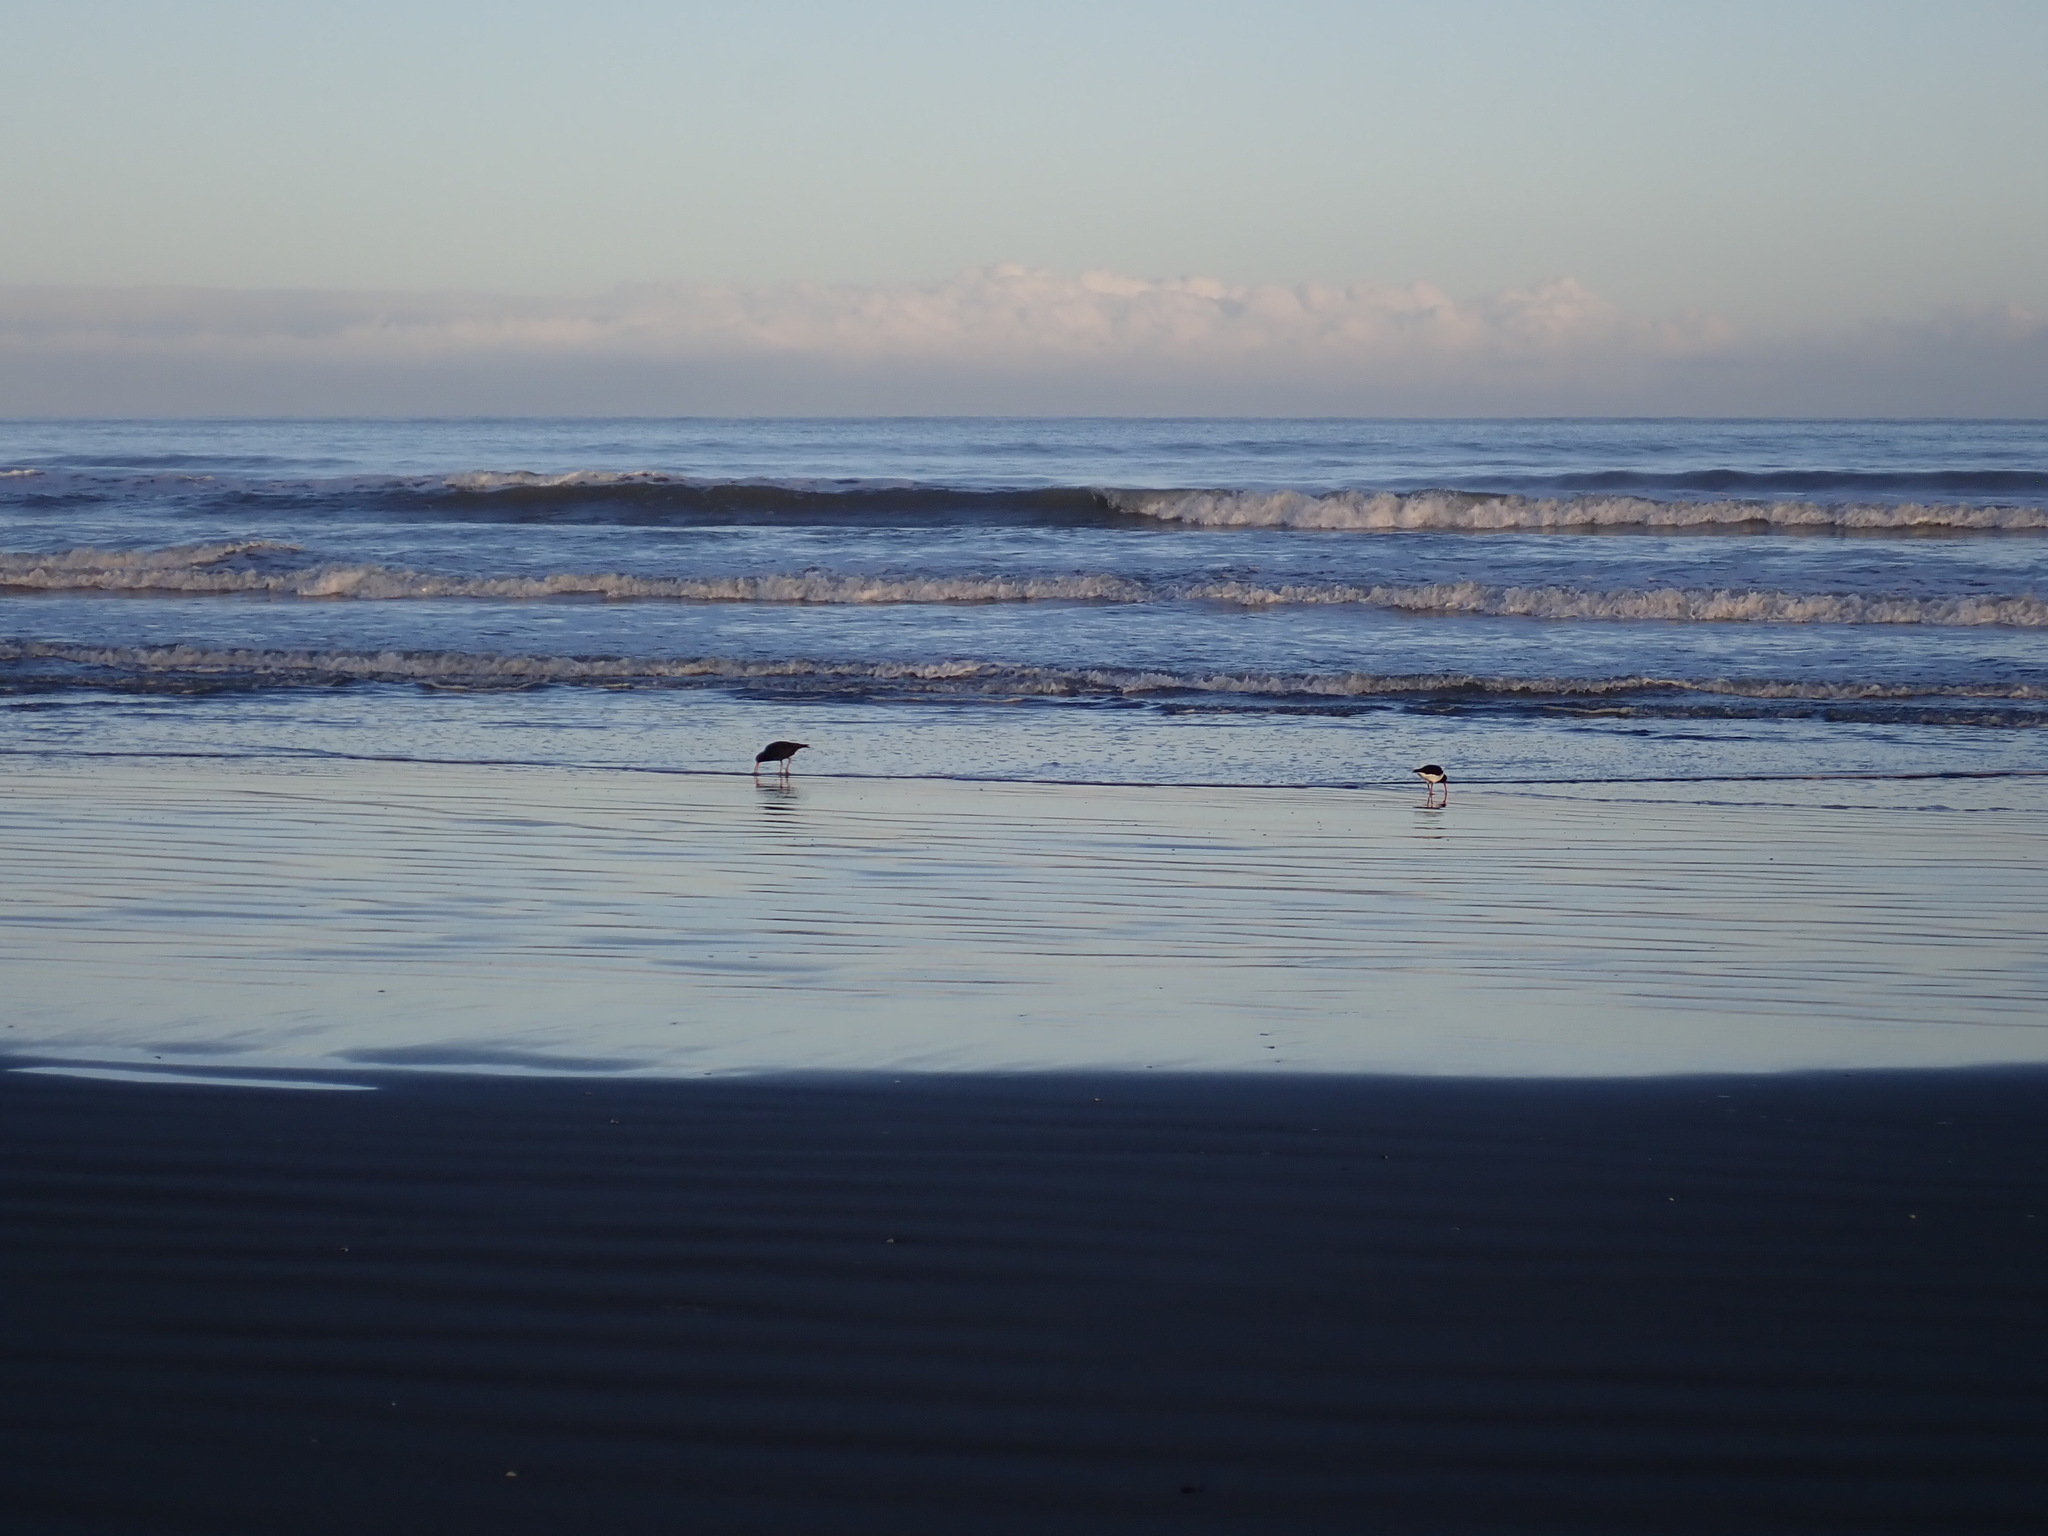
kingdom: Animalia
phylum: Chordata
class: Aves
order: Charadriiformes
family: Haematopodidae
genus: Haematopus
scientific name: Haematopus unicolor
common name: Variable oystercatcher
